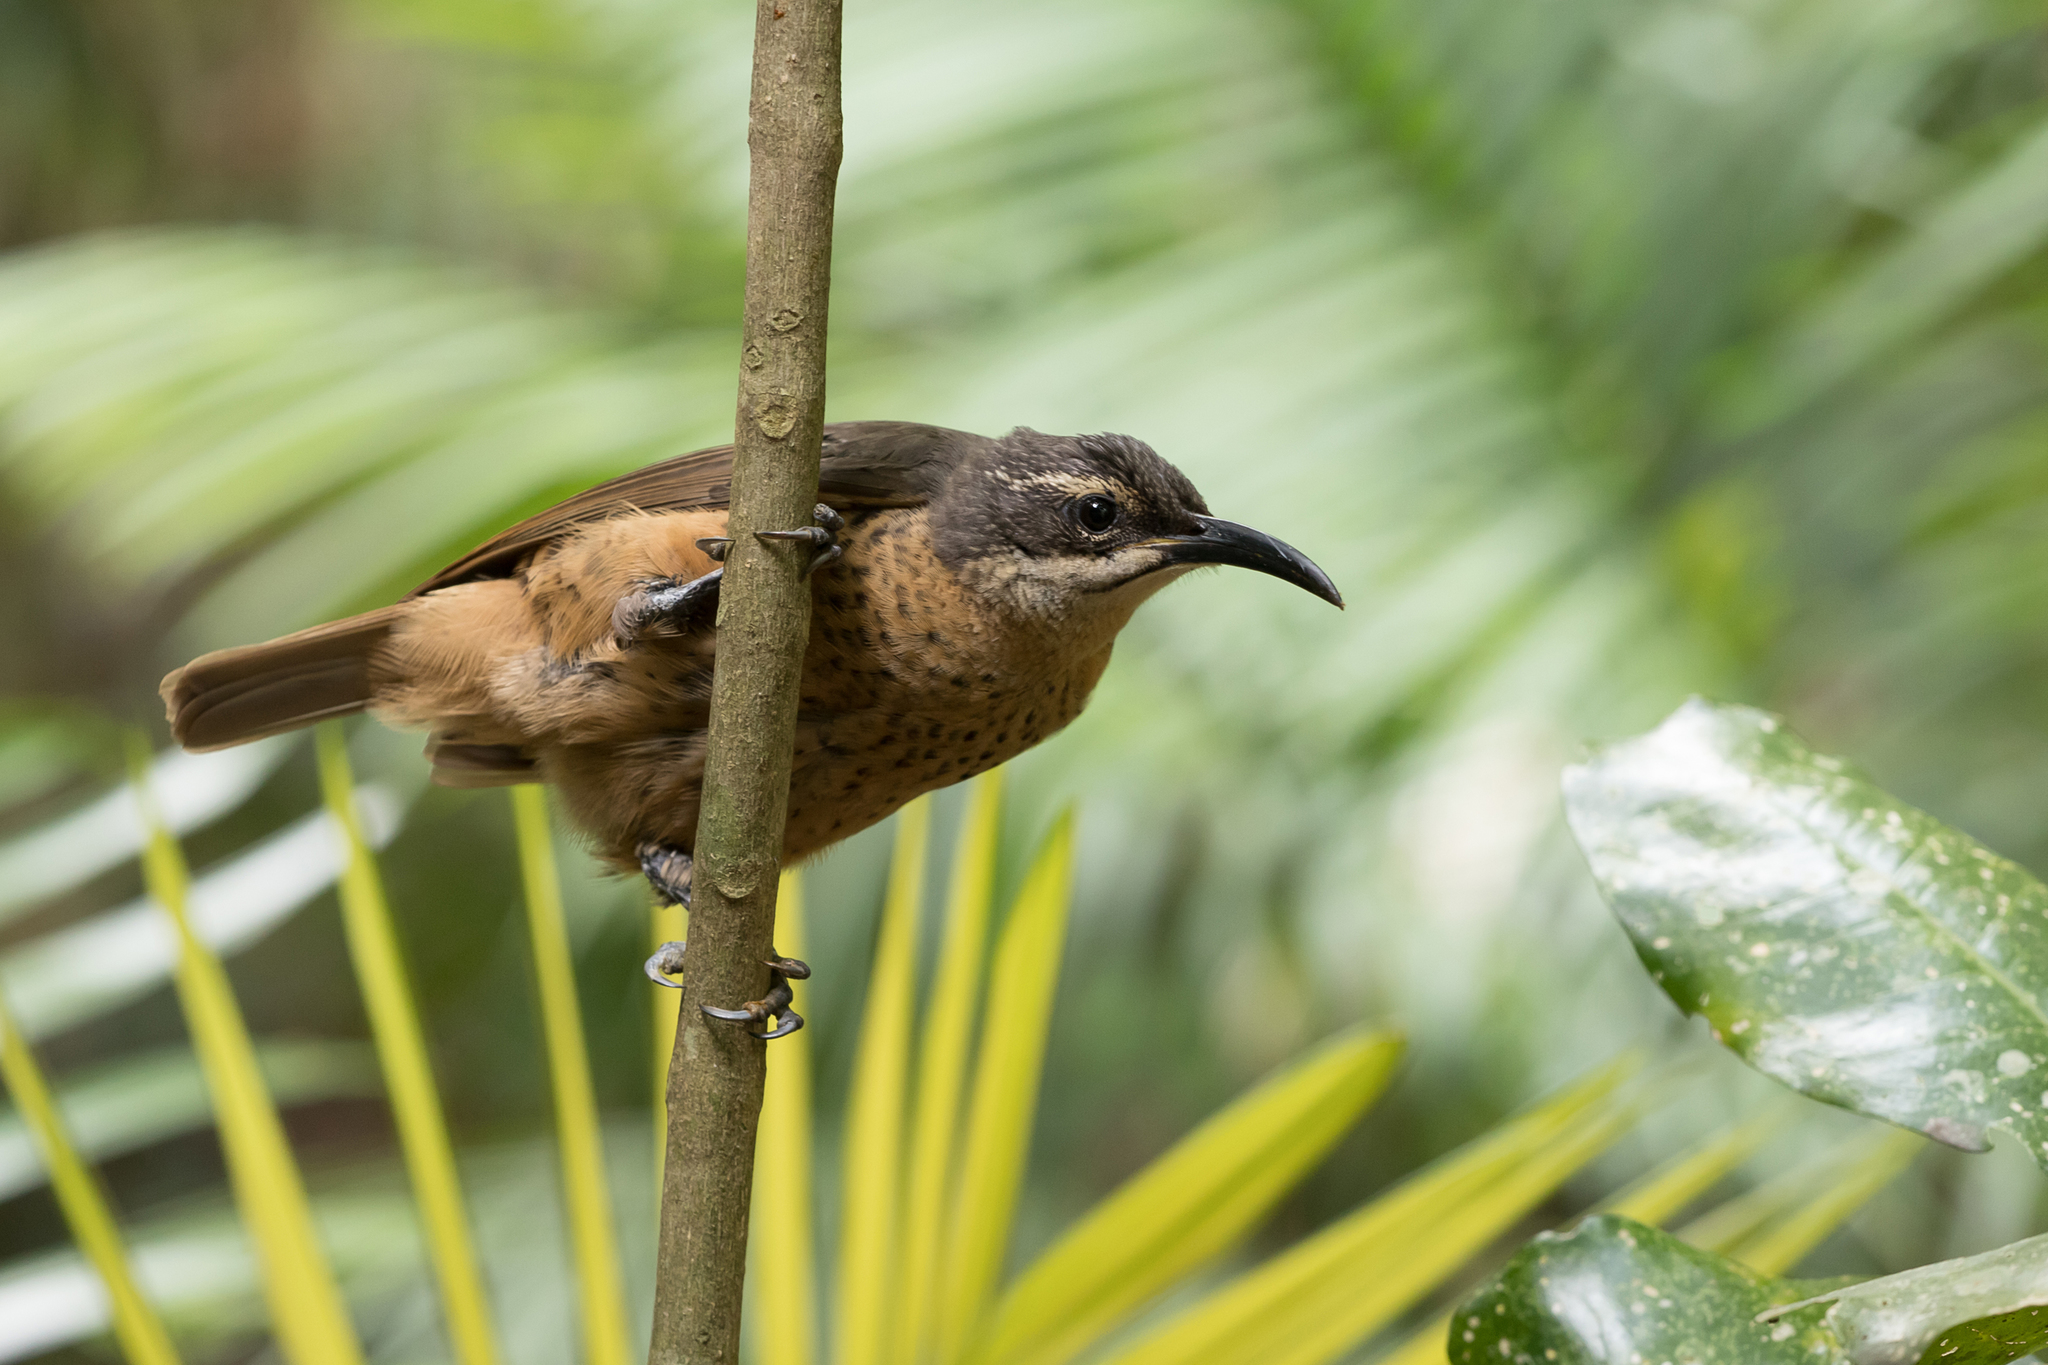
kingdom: Animalia
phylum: Chordata
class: Aves
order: Passeriformes
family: Paradisaeidae
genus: Ptiloris
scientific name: Ptiloris victoriae
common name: Victoria's riflebird
